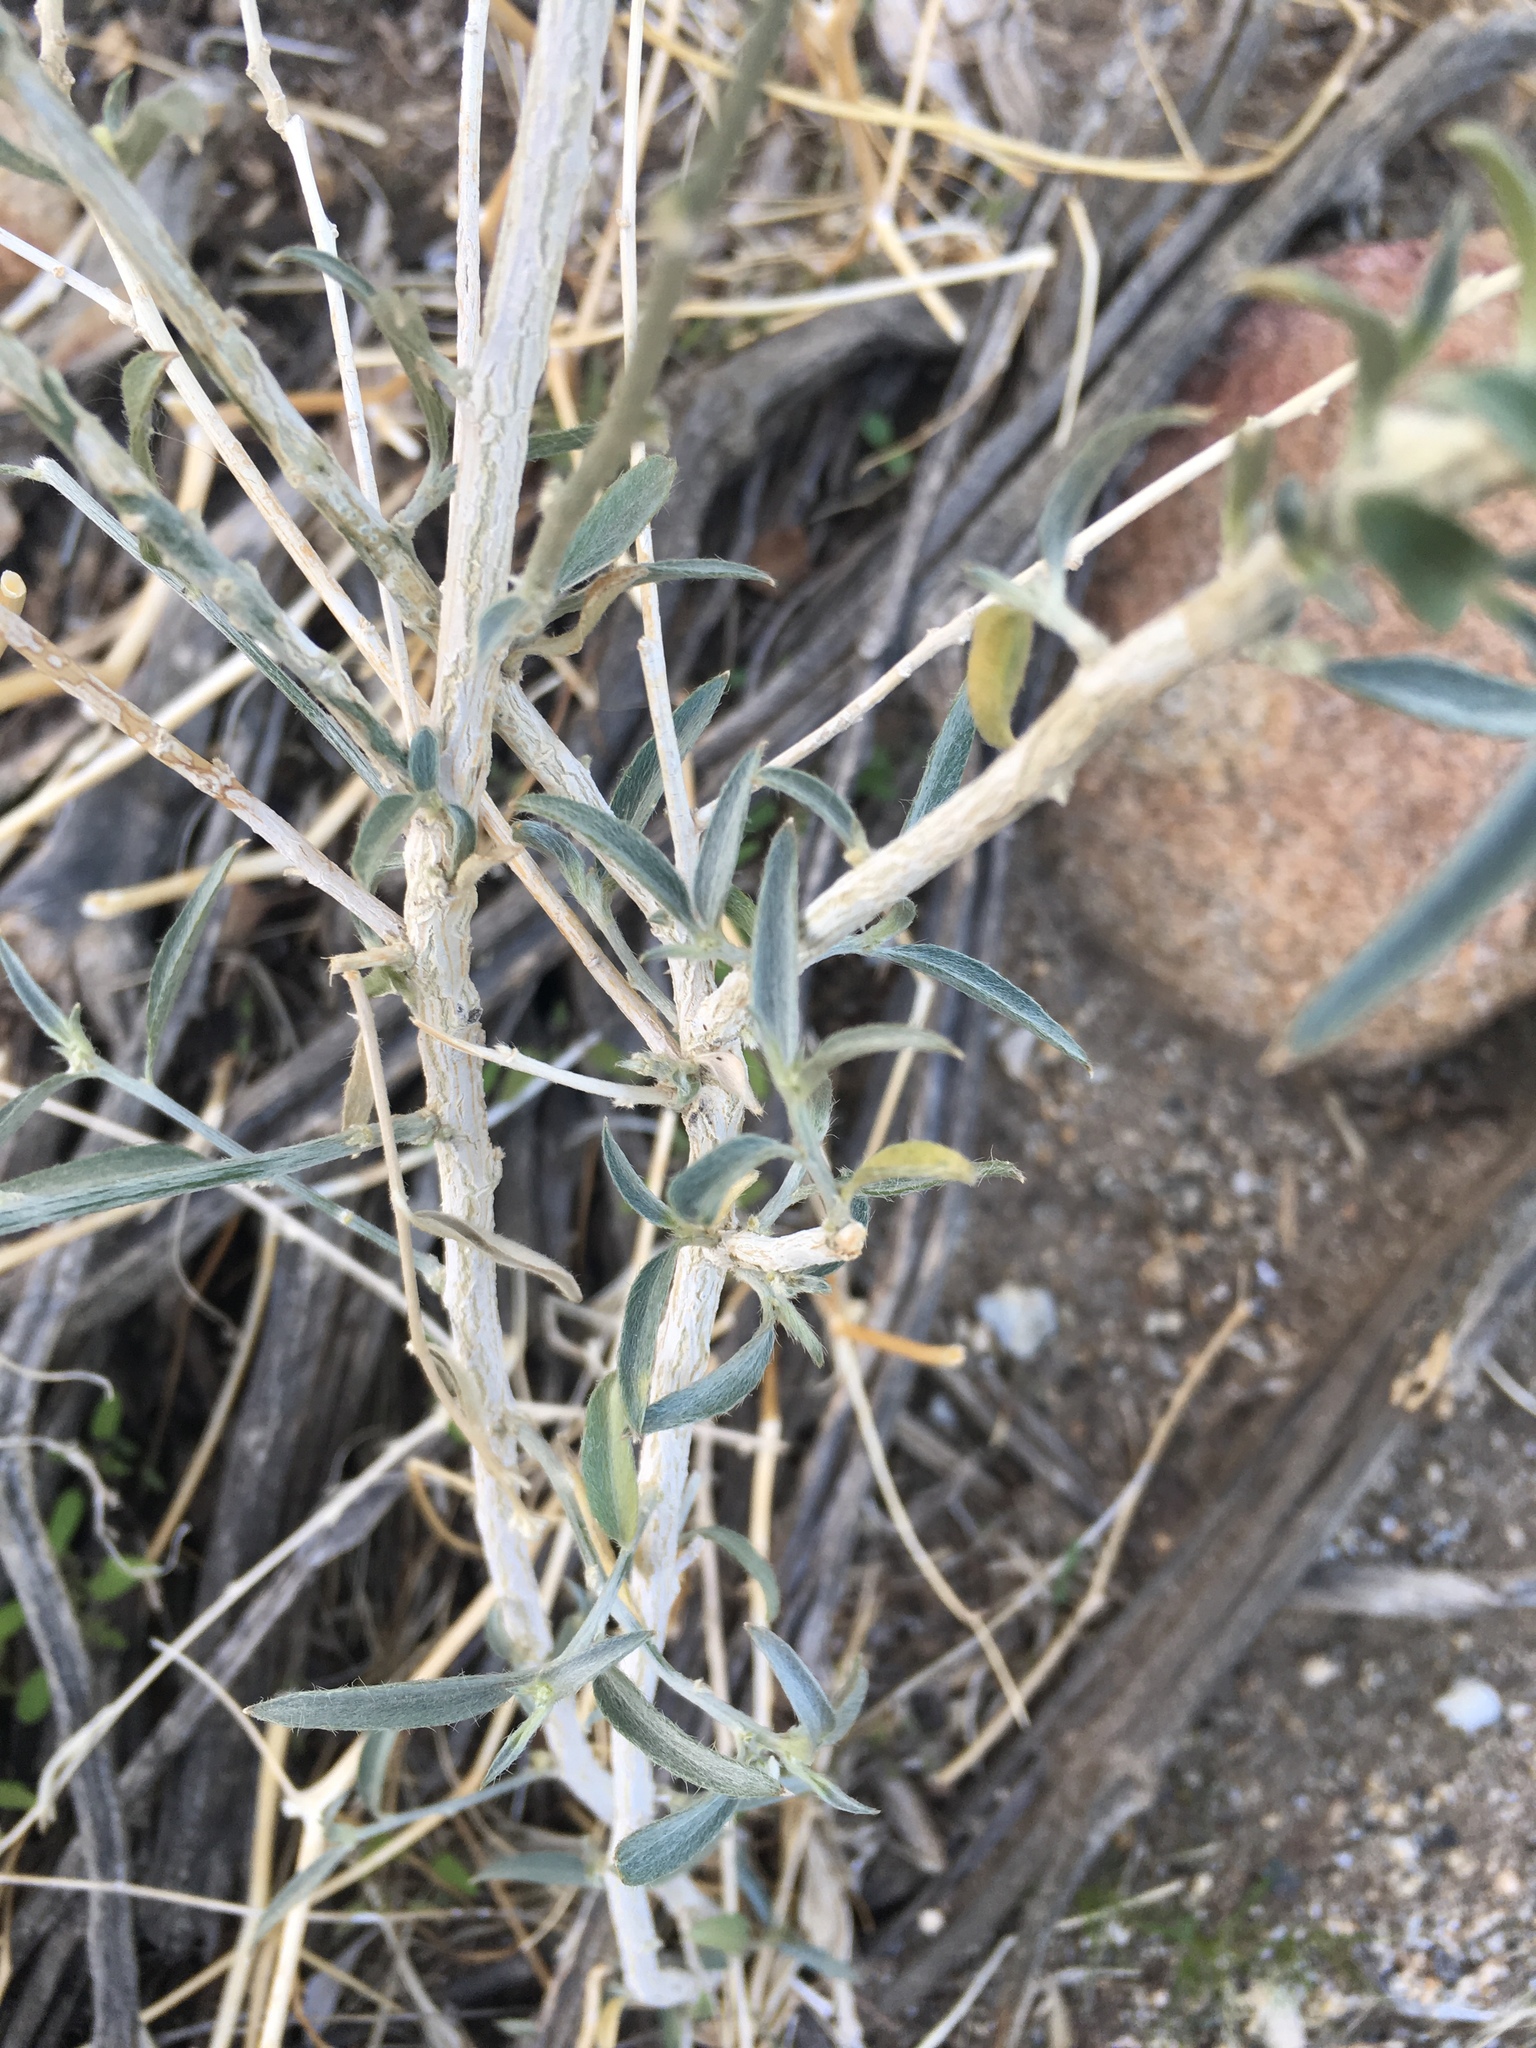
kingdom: Plantae
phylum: Tracheophyta
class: Magnoliopsida
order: Malpighiales
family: Euphorbiaceae
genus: Ditaxis
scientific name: Ditaxis lanceolata
